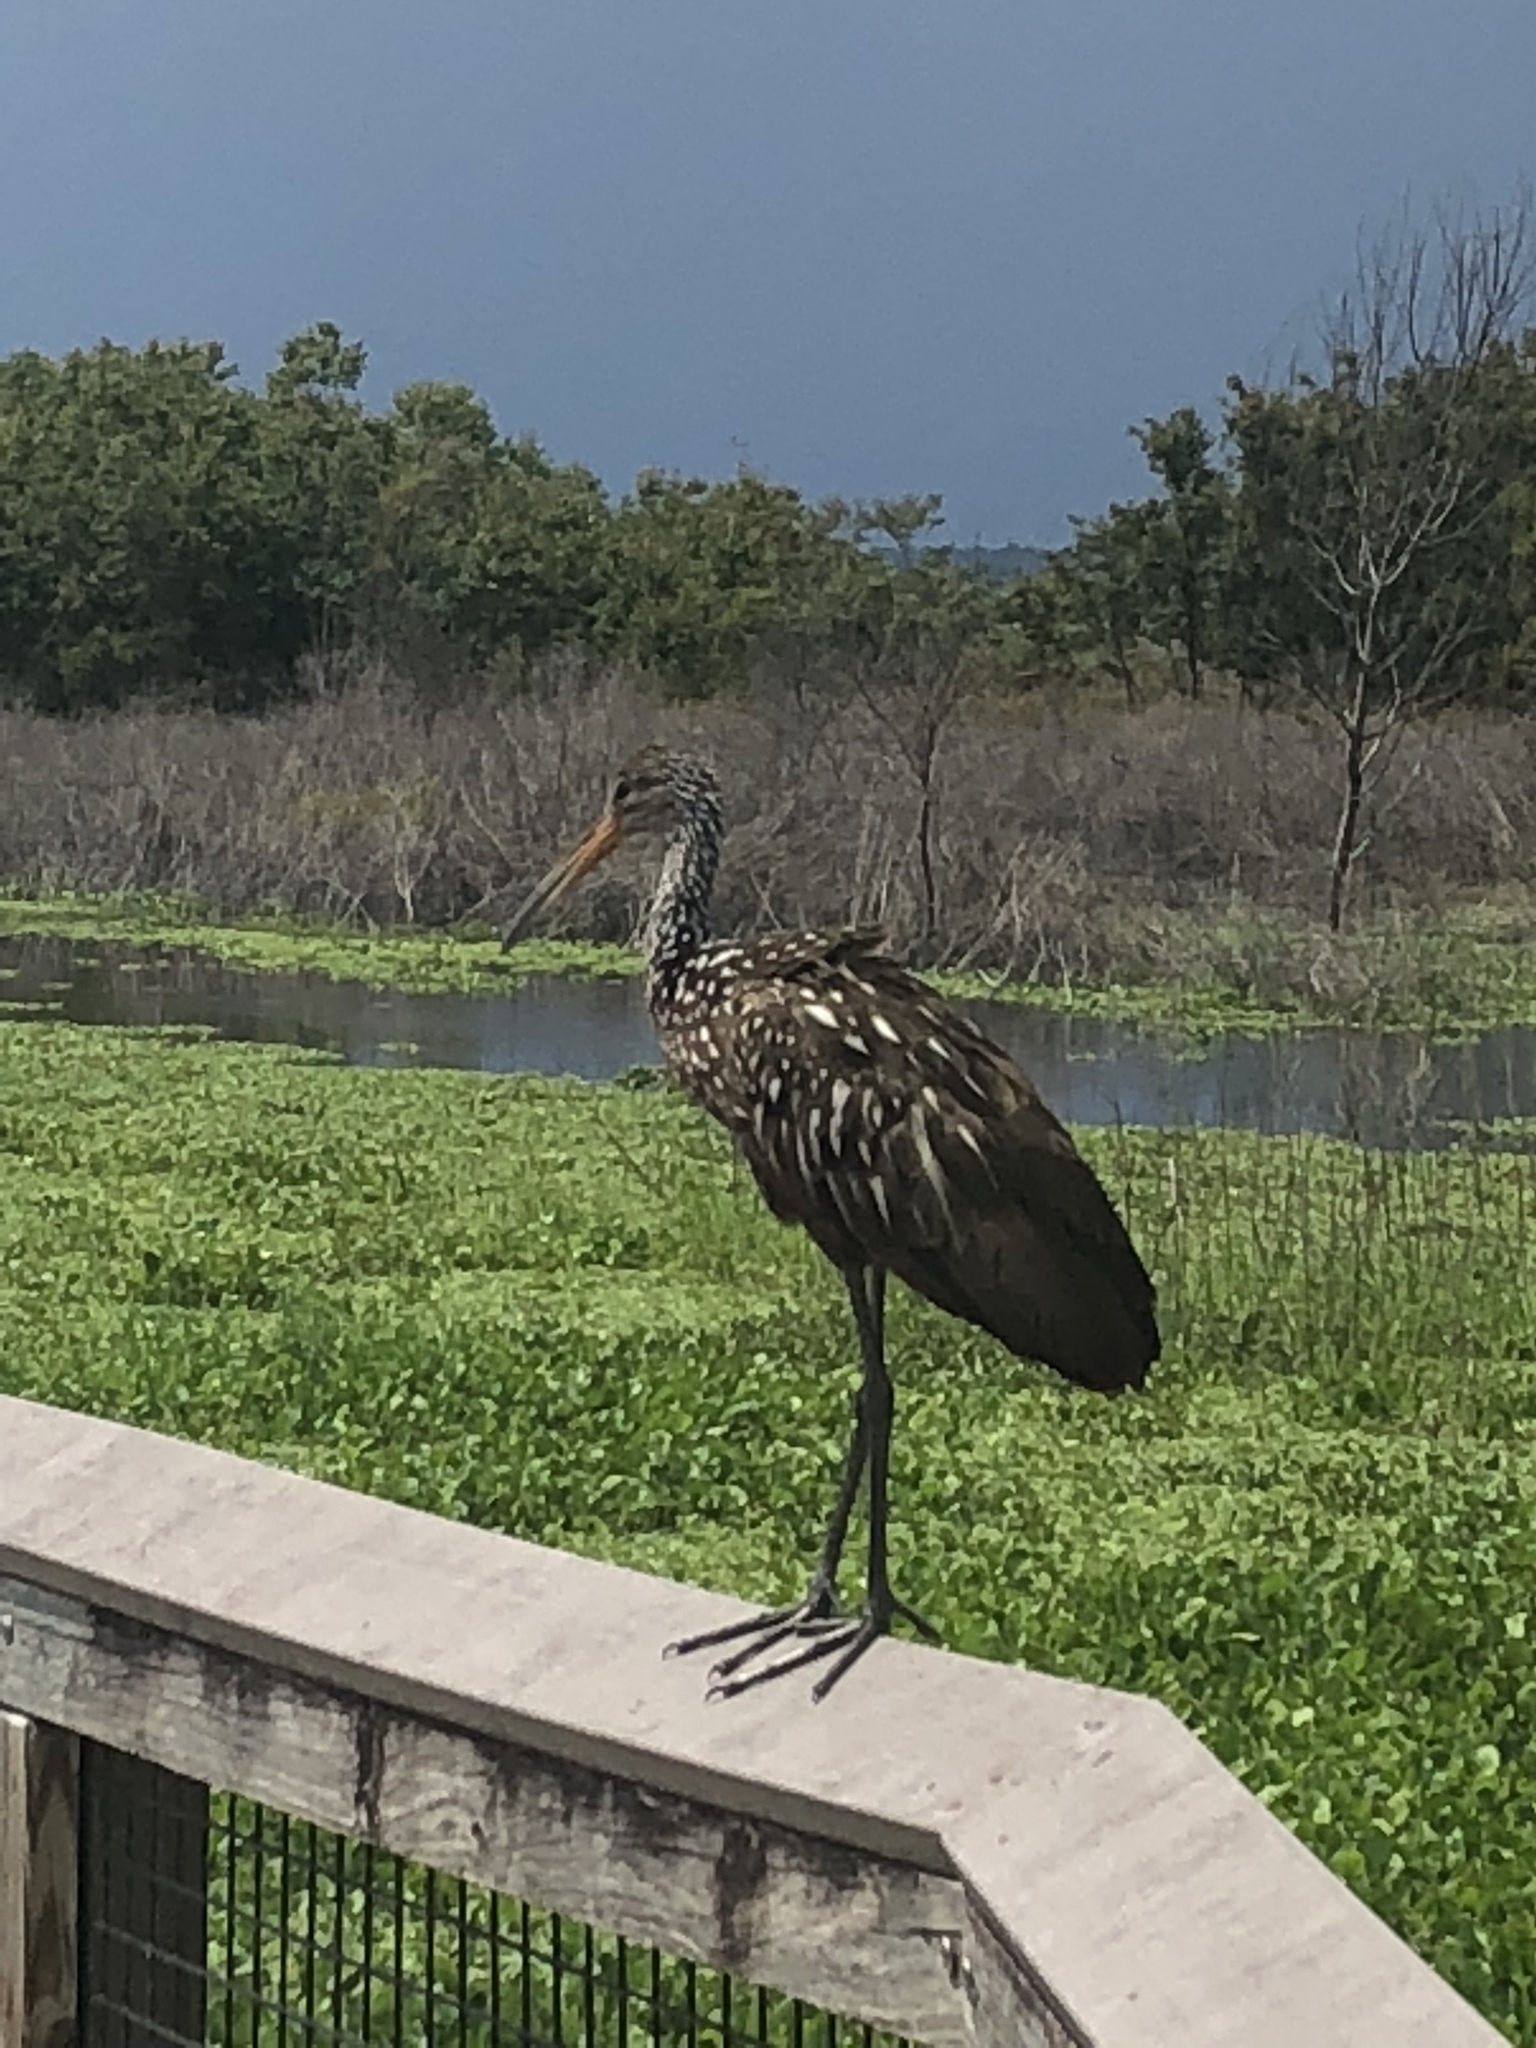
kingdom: Animalia
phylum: Chordata
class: Aves
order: Gruiformes
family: Aramidae
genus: Aramus
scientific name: Aramus guarauna
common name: Limpkin
